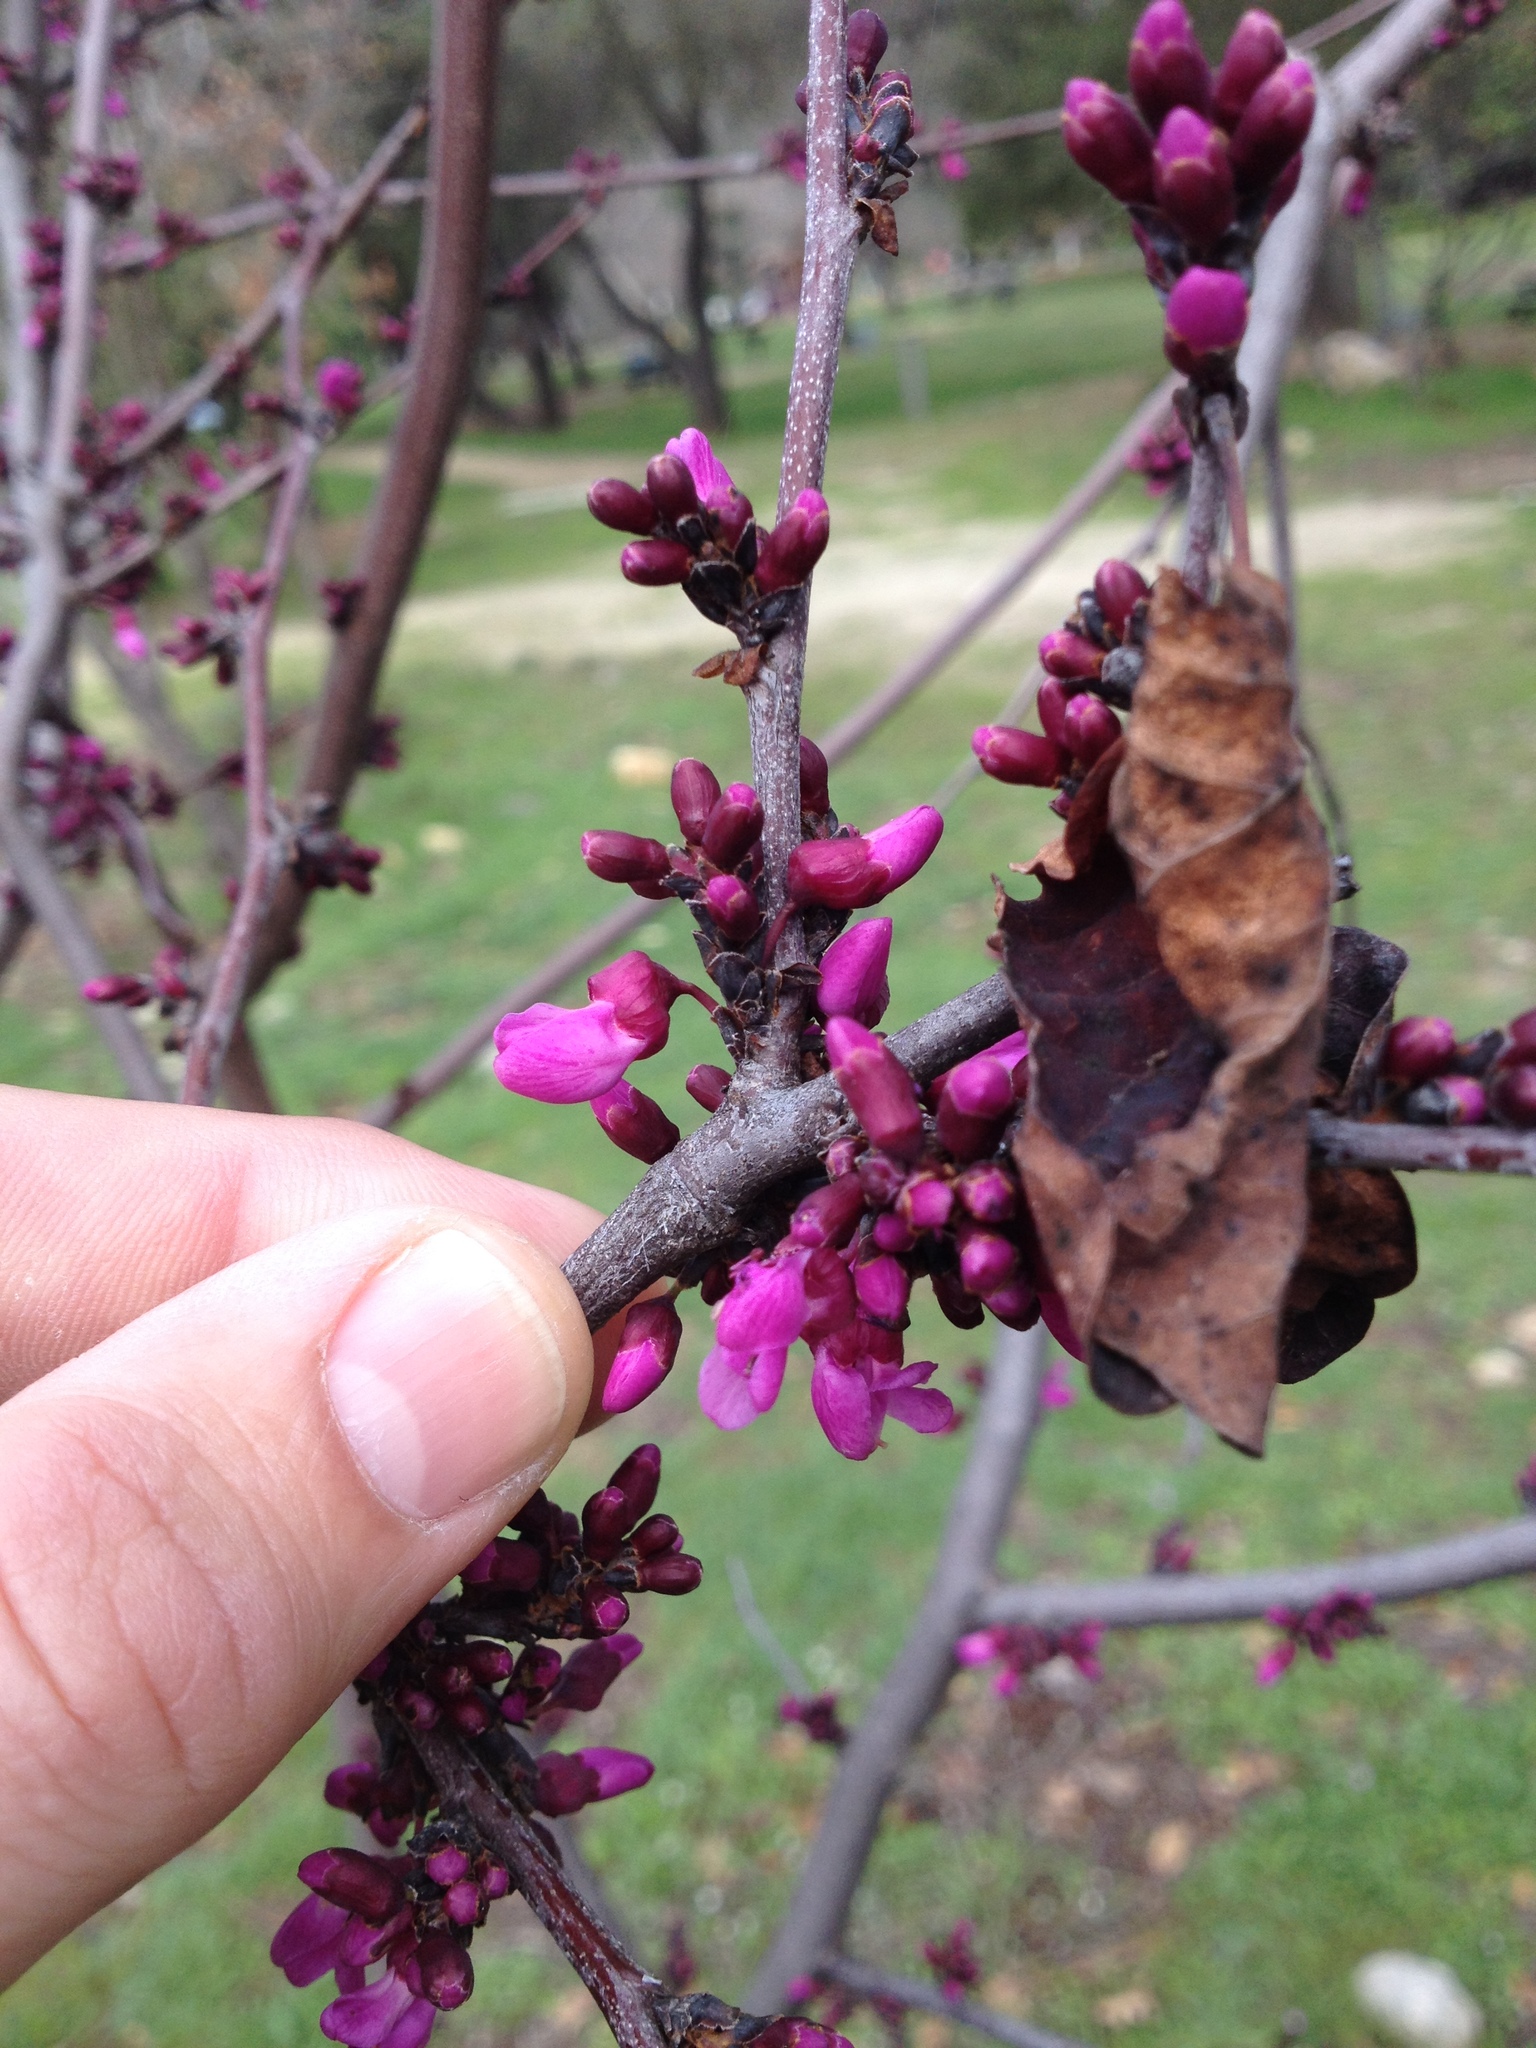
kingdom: Plantae
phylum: Tracheophyta
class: Magnoliopsida
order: Fabales
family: Fabaceae
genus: Cercis
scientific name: Cercis occidentalis
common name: California redbud
